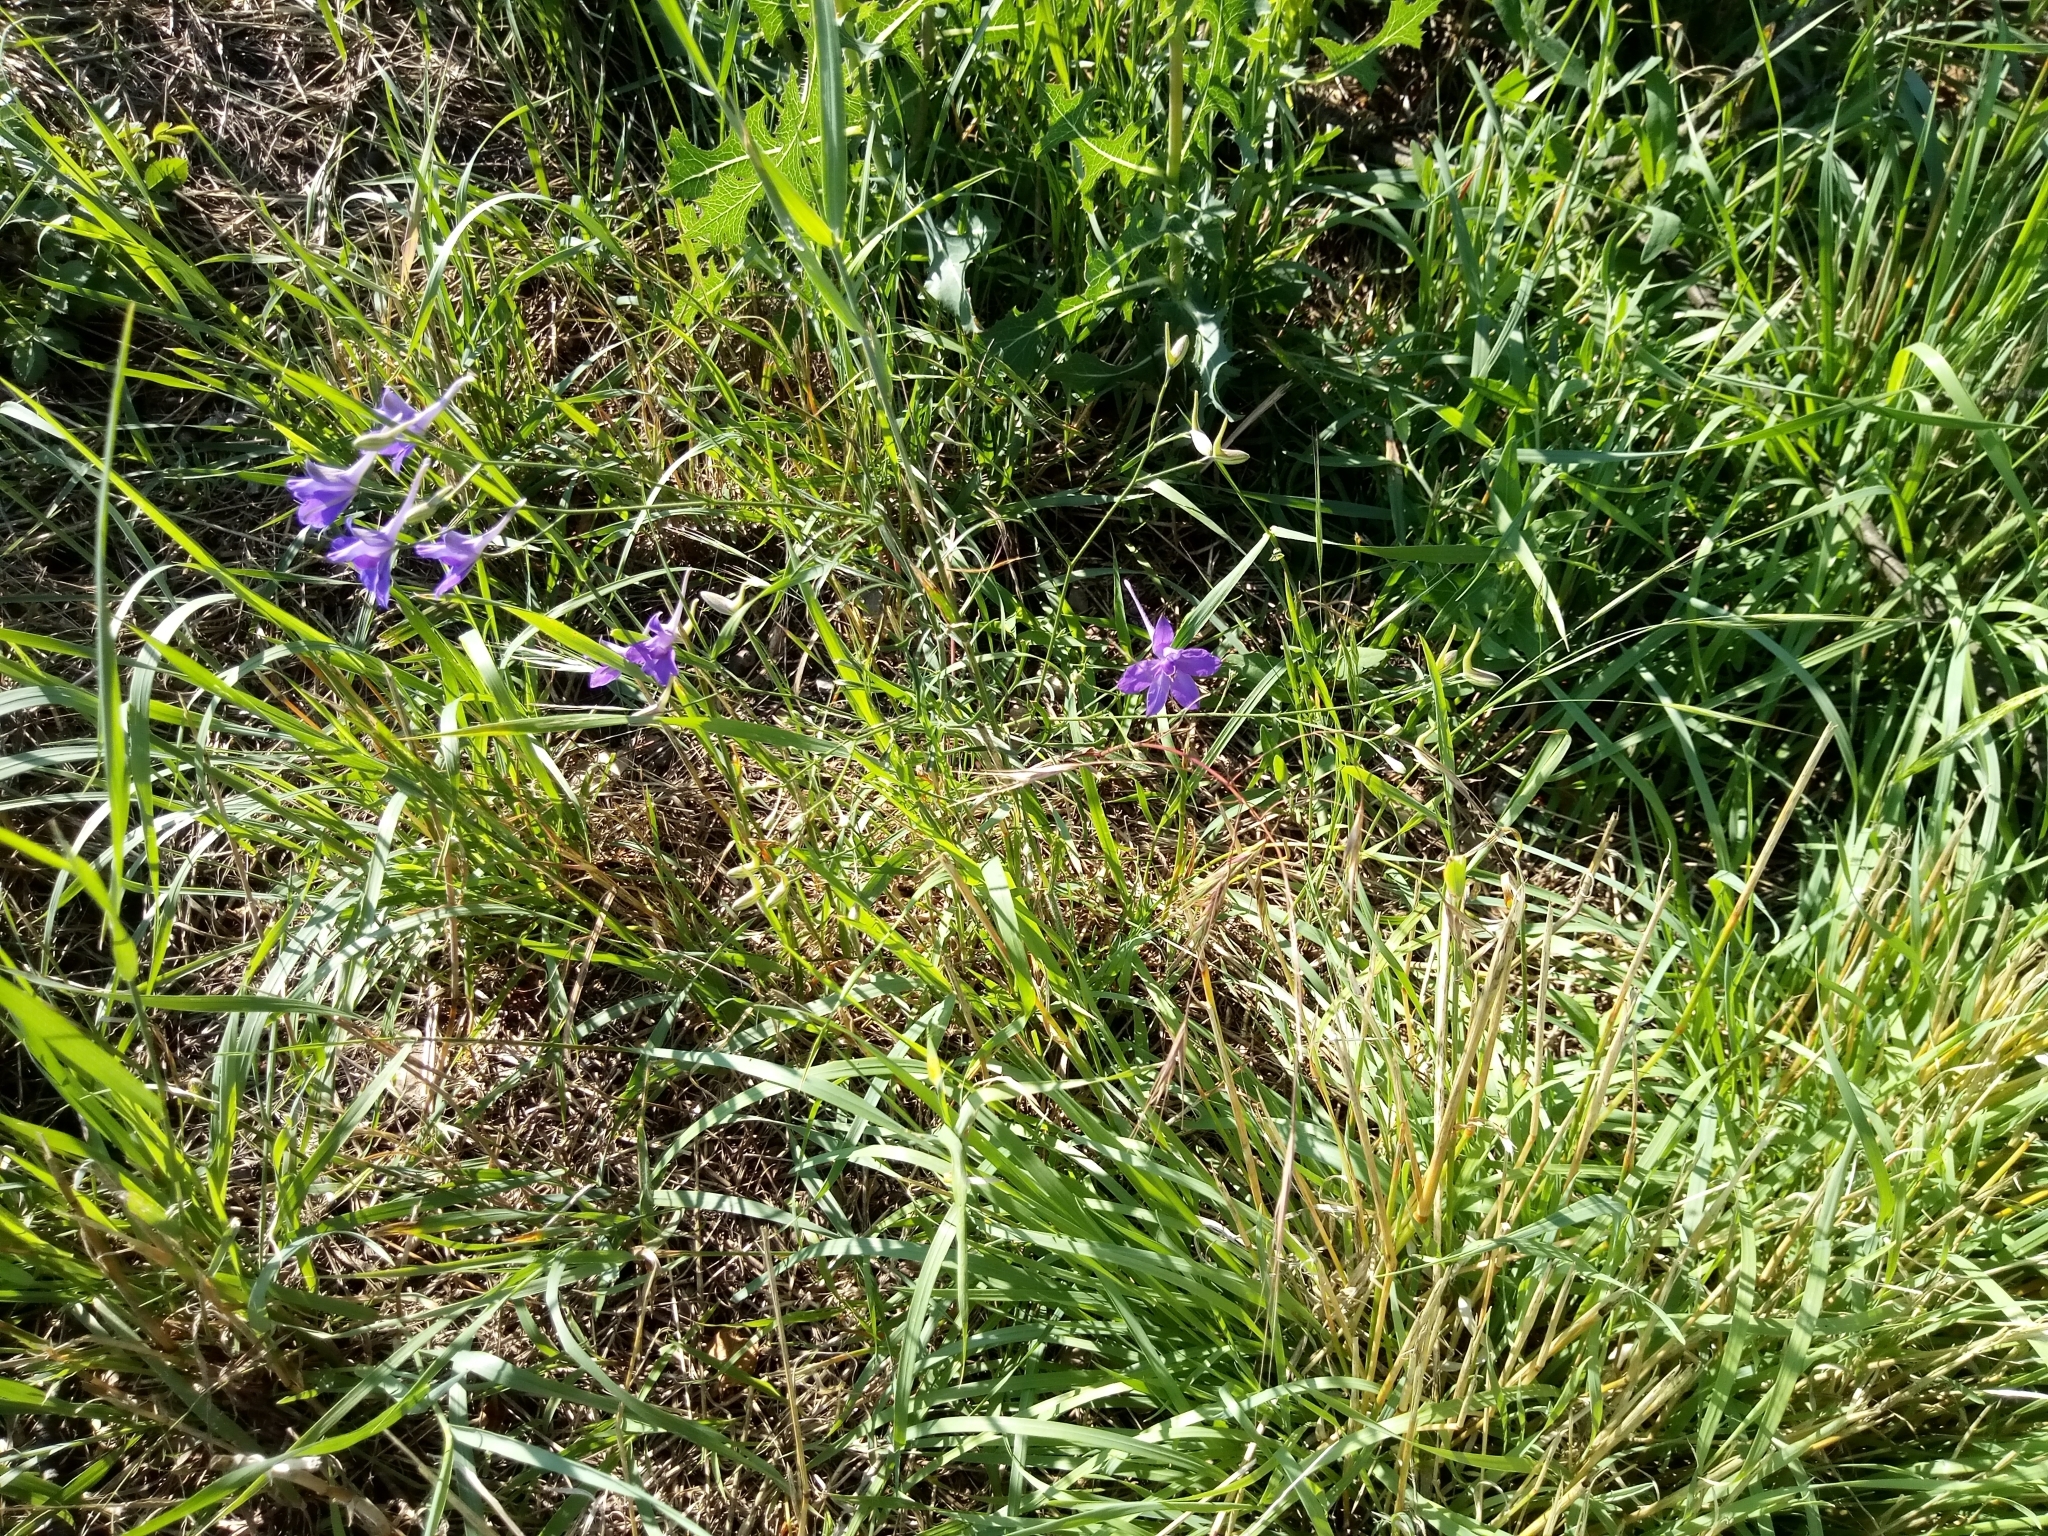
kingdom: Plantae
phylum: Tracheophyta
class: Magnoliopsida
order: Ranunculales
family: Ranunculaceae
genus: Delphinium
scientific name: Delphinium consolida
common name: Branching larkspur
